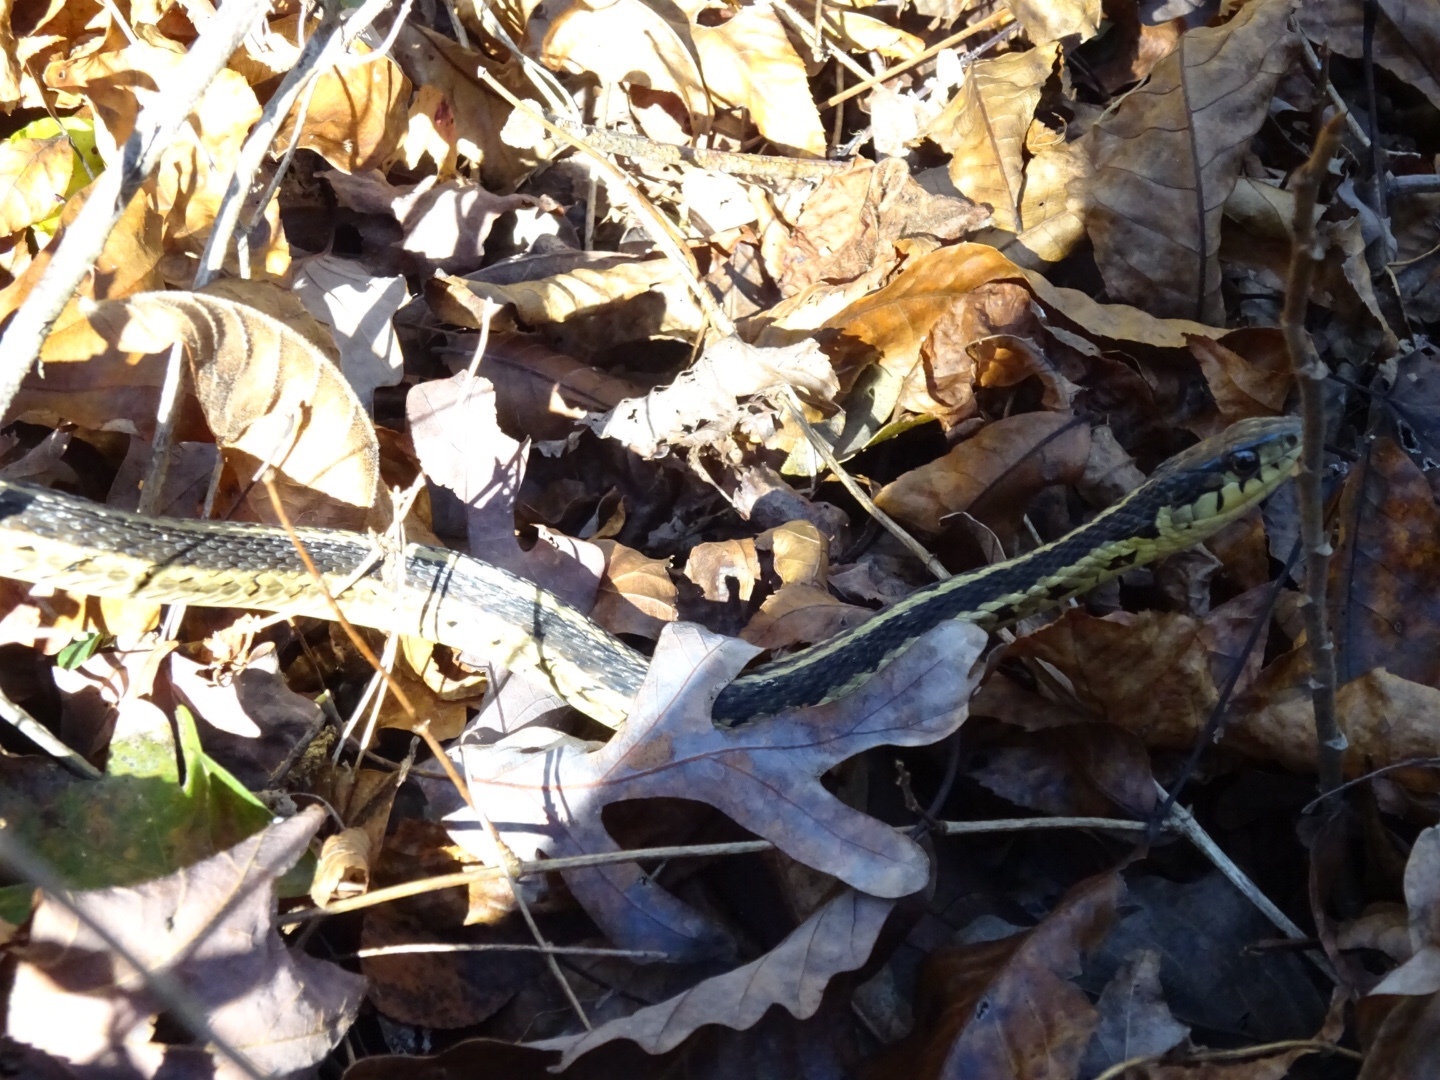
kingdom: Animalia
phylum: Chordata
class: Squamata
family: Colubridae
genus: Thamnophis
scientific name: Thamnophis sirtalis
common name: Common garter snake
